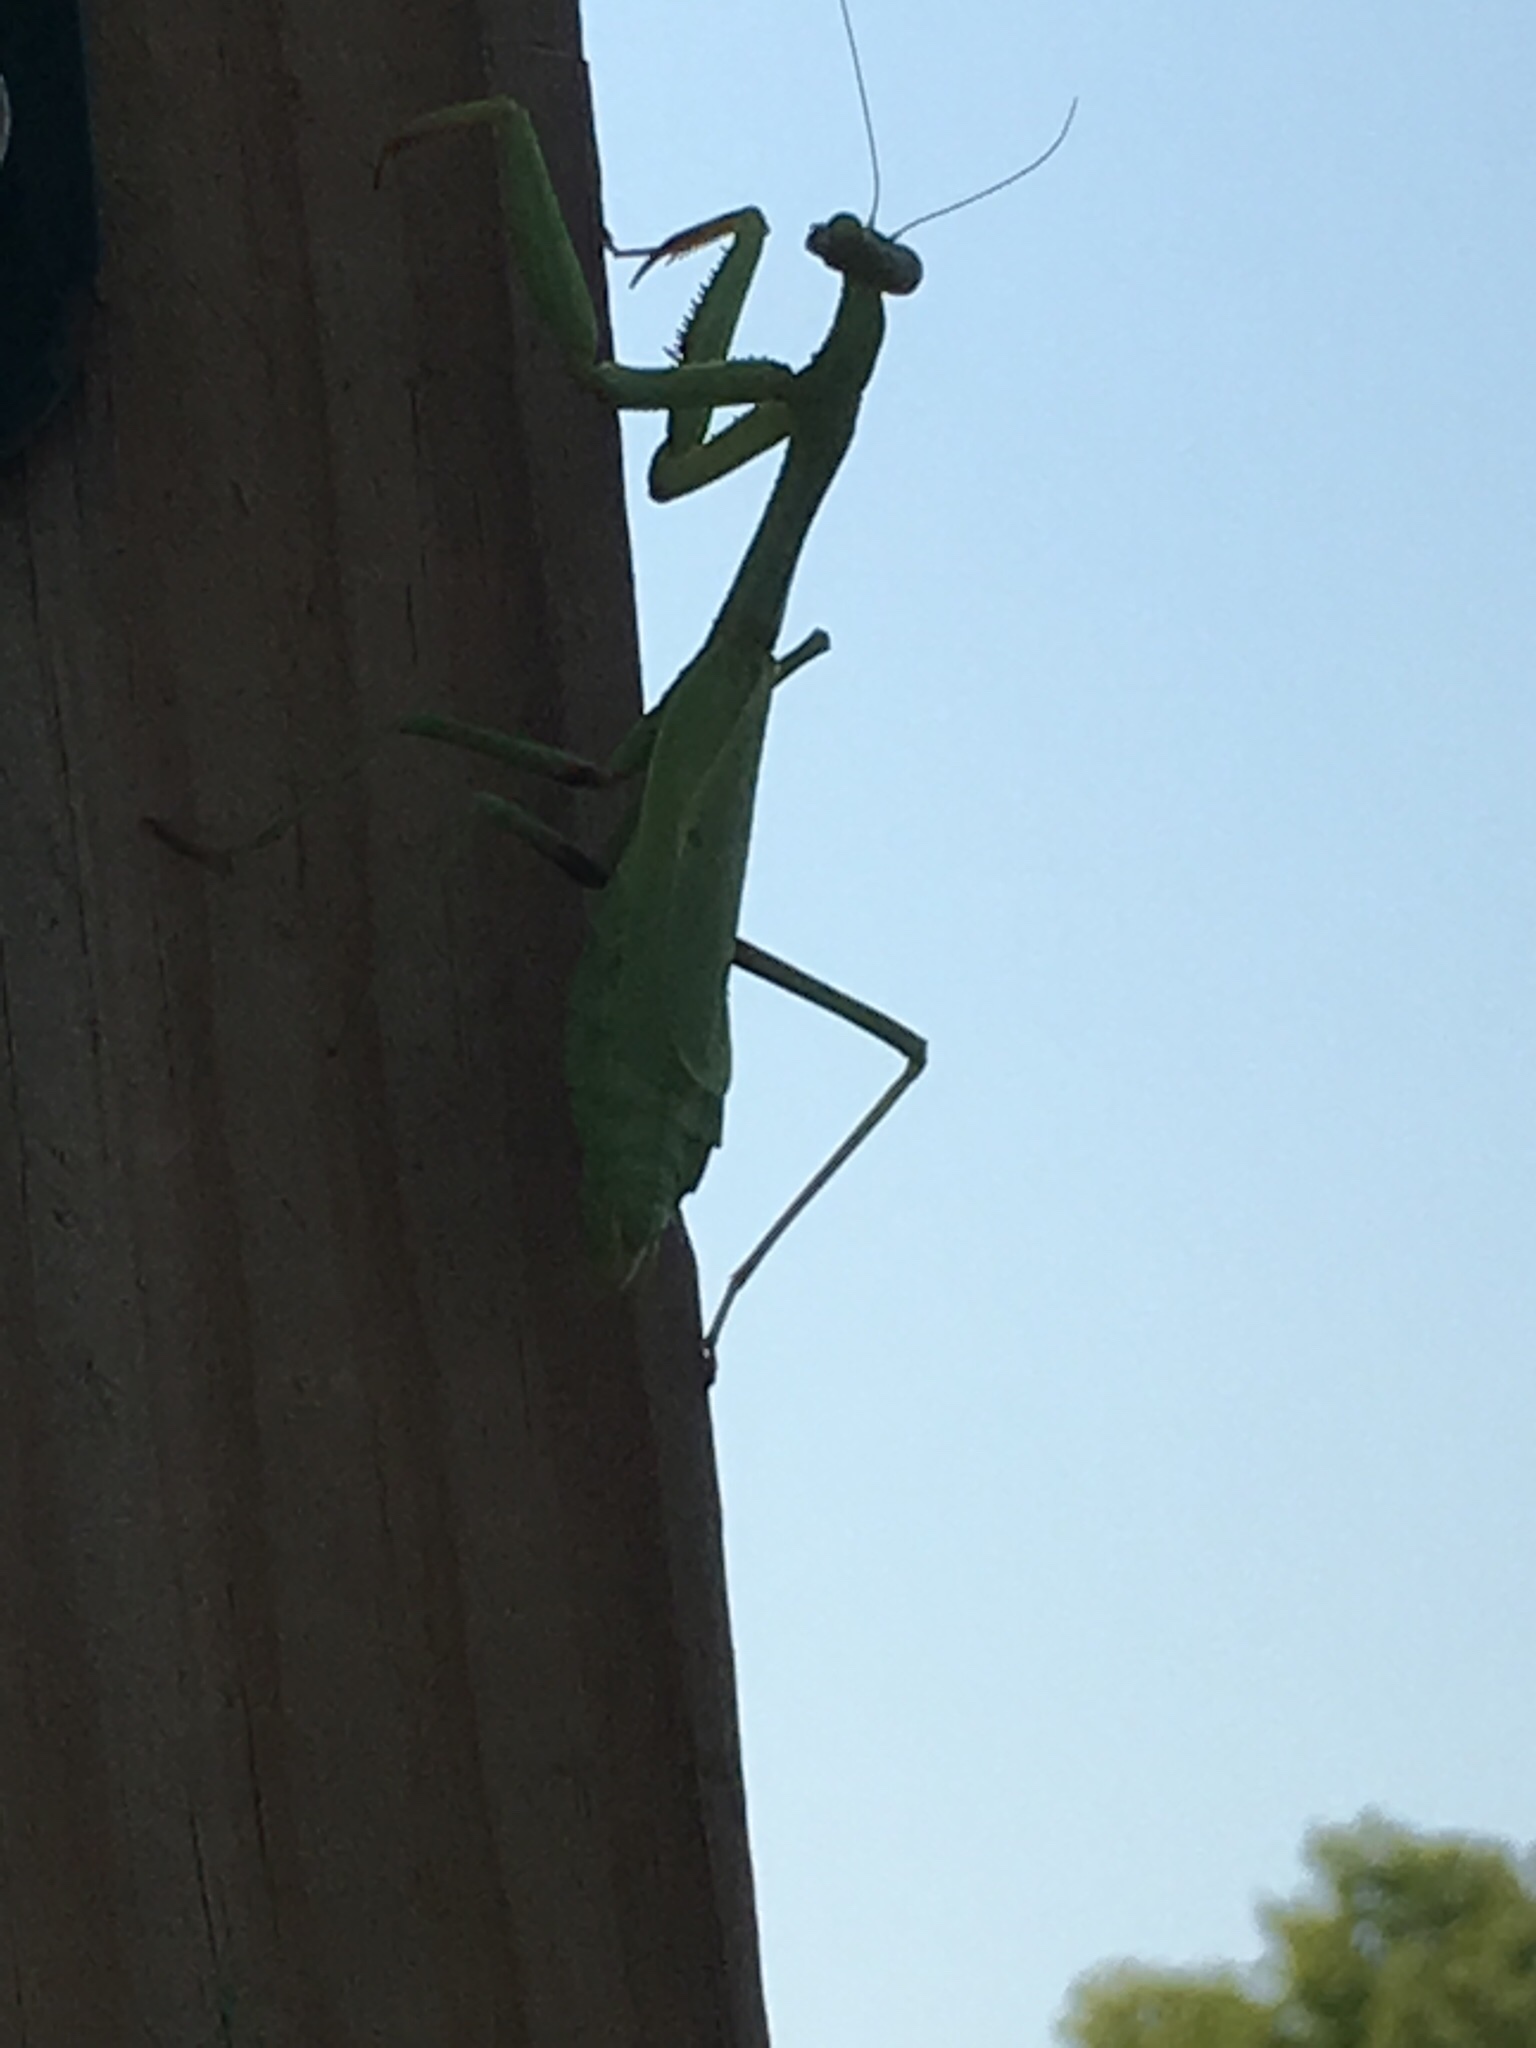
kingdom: Animalia
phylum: Arthropoda
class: Insecta
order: Mantodea
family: Mantidae
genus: Stagmomantis
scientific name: Stagmomantis carolina
